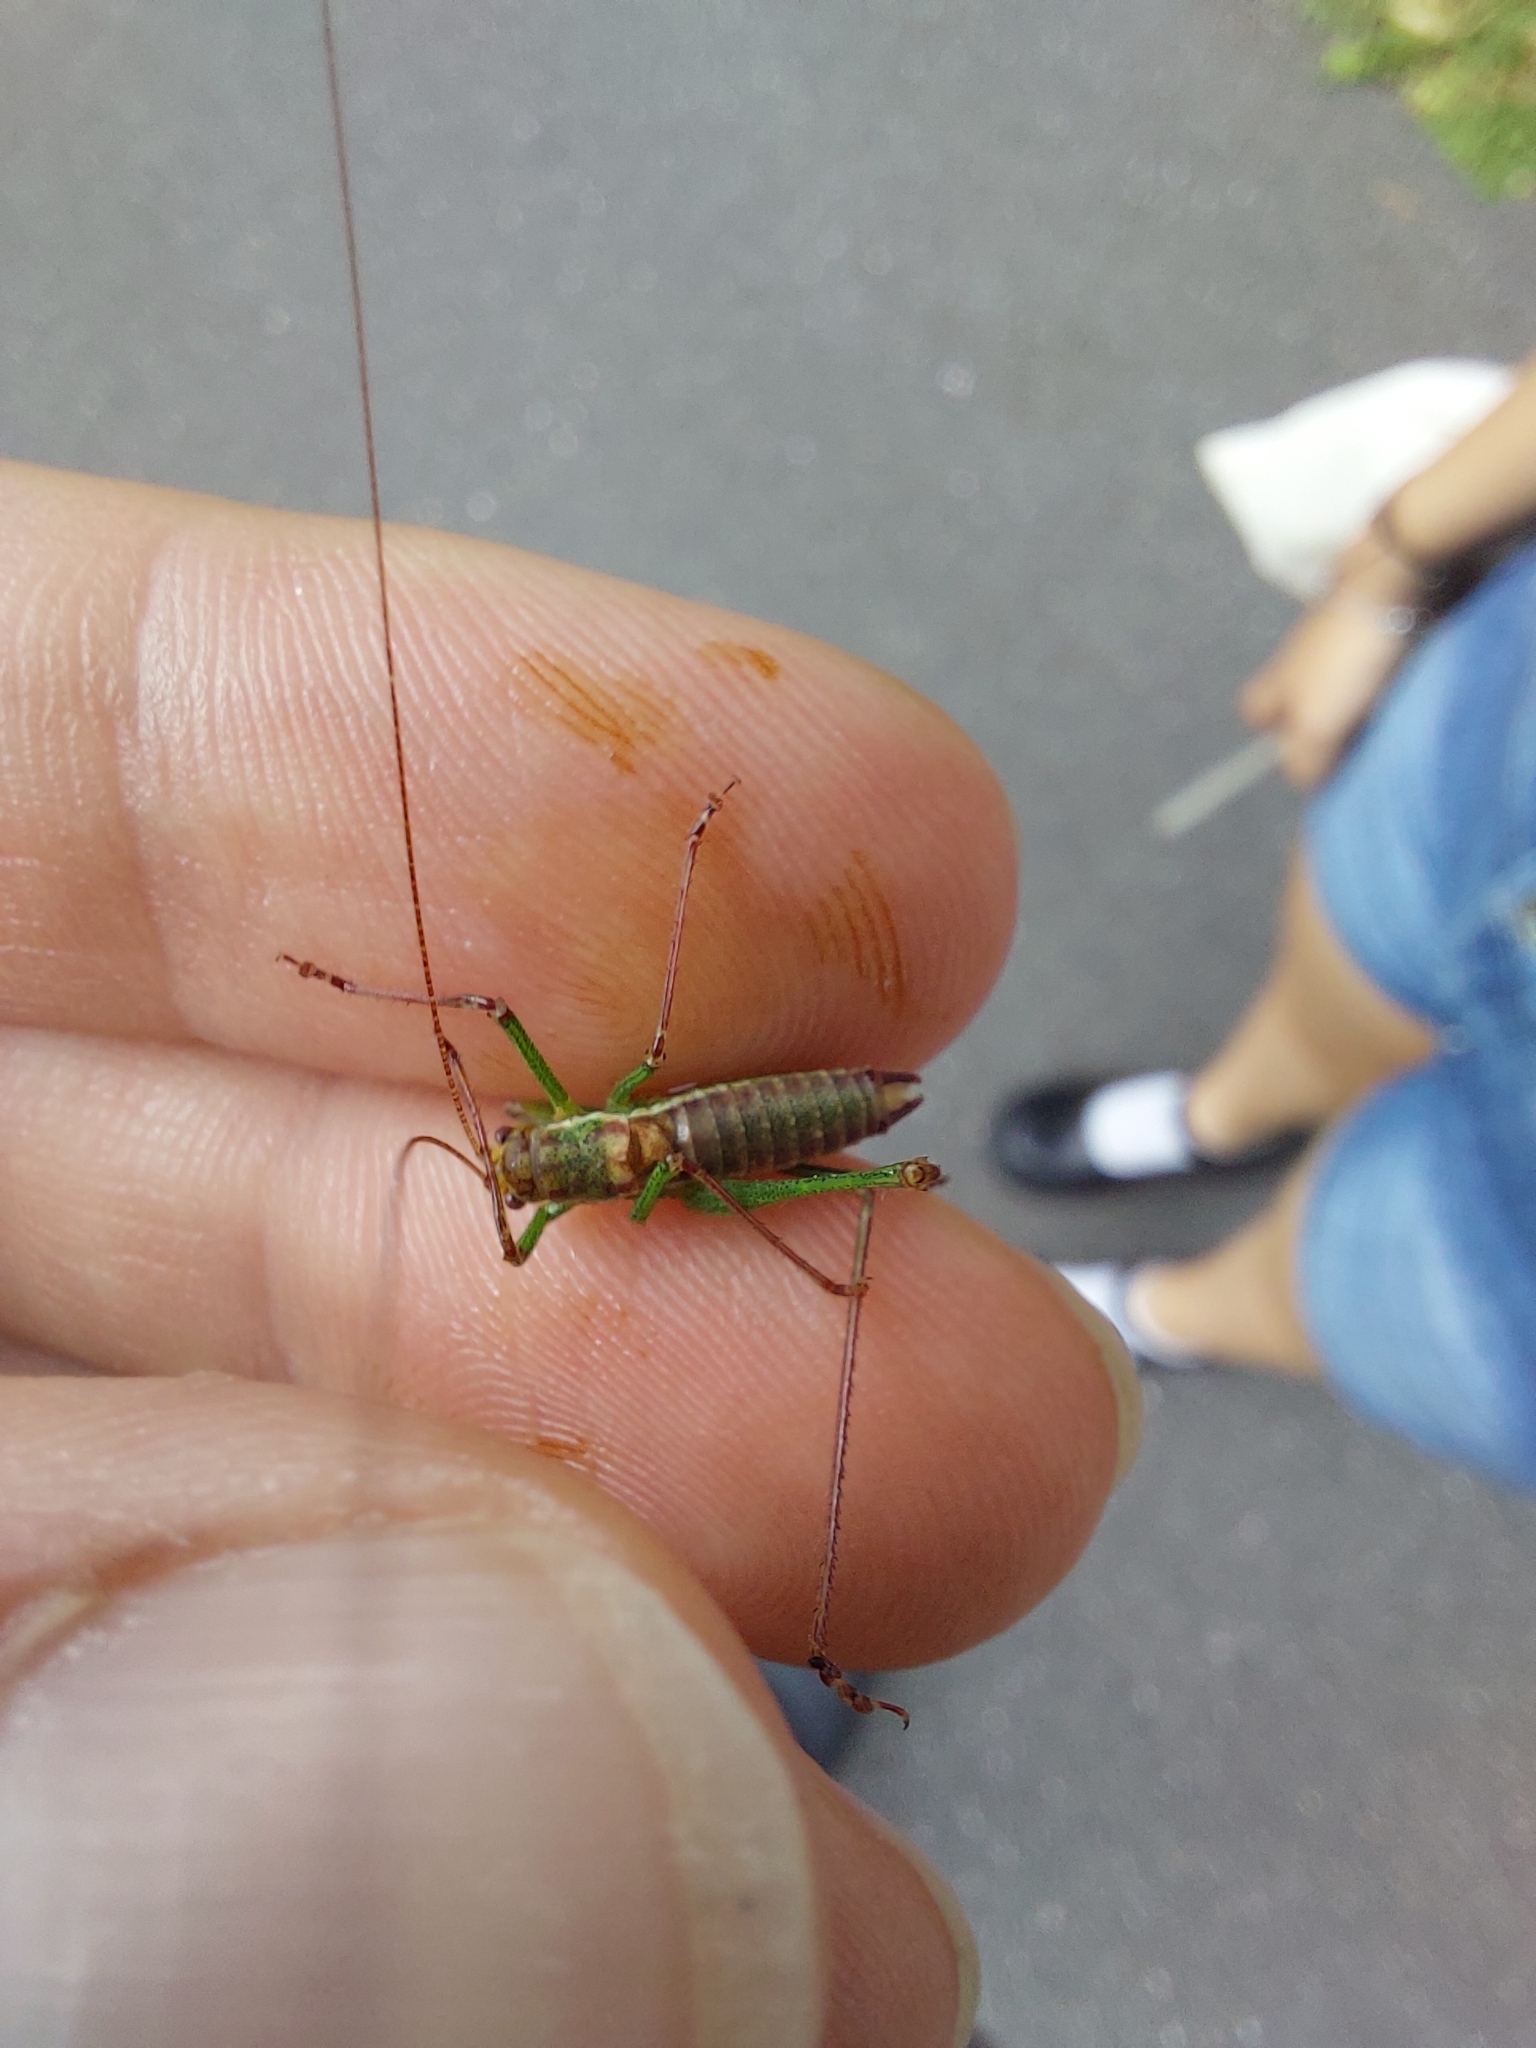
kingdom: Animalia
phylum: Arthropoda
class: Insecta
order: Orthoptera
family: Tettigoniidae
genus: Leptophyes
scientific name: Leptophyes albovittata
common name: Striped bush-cricket
